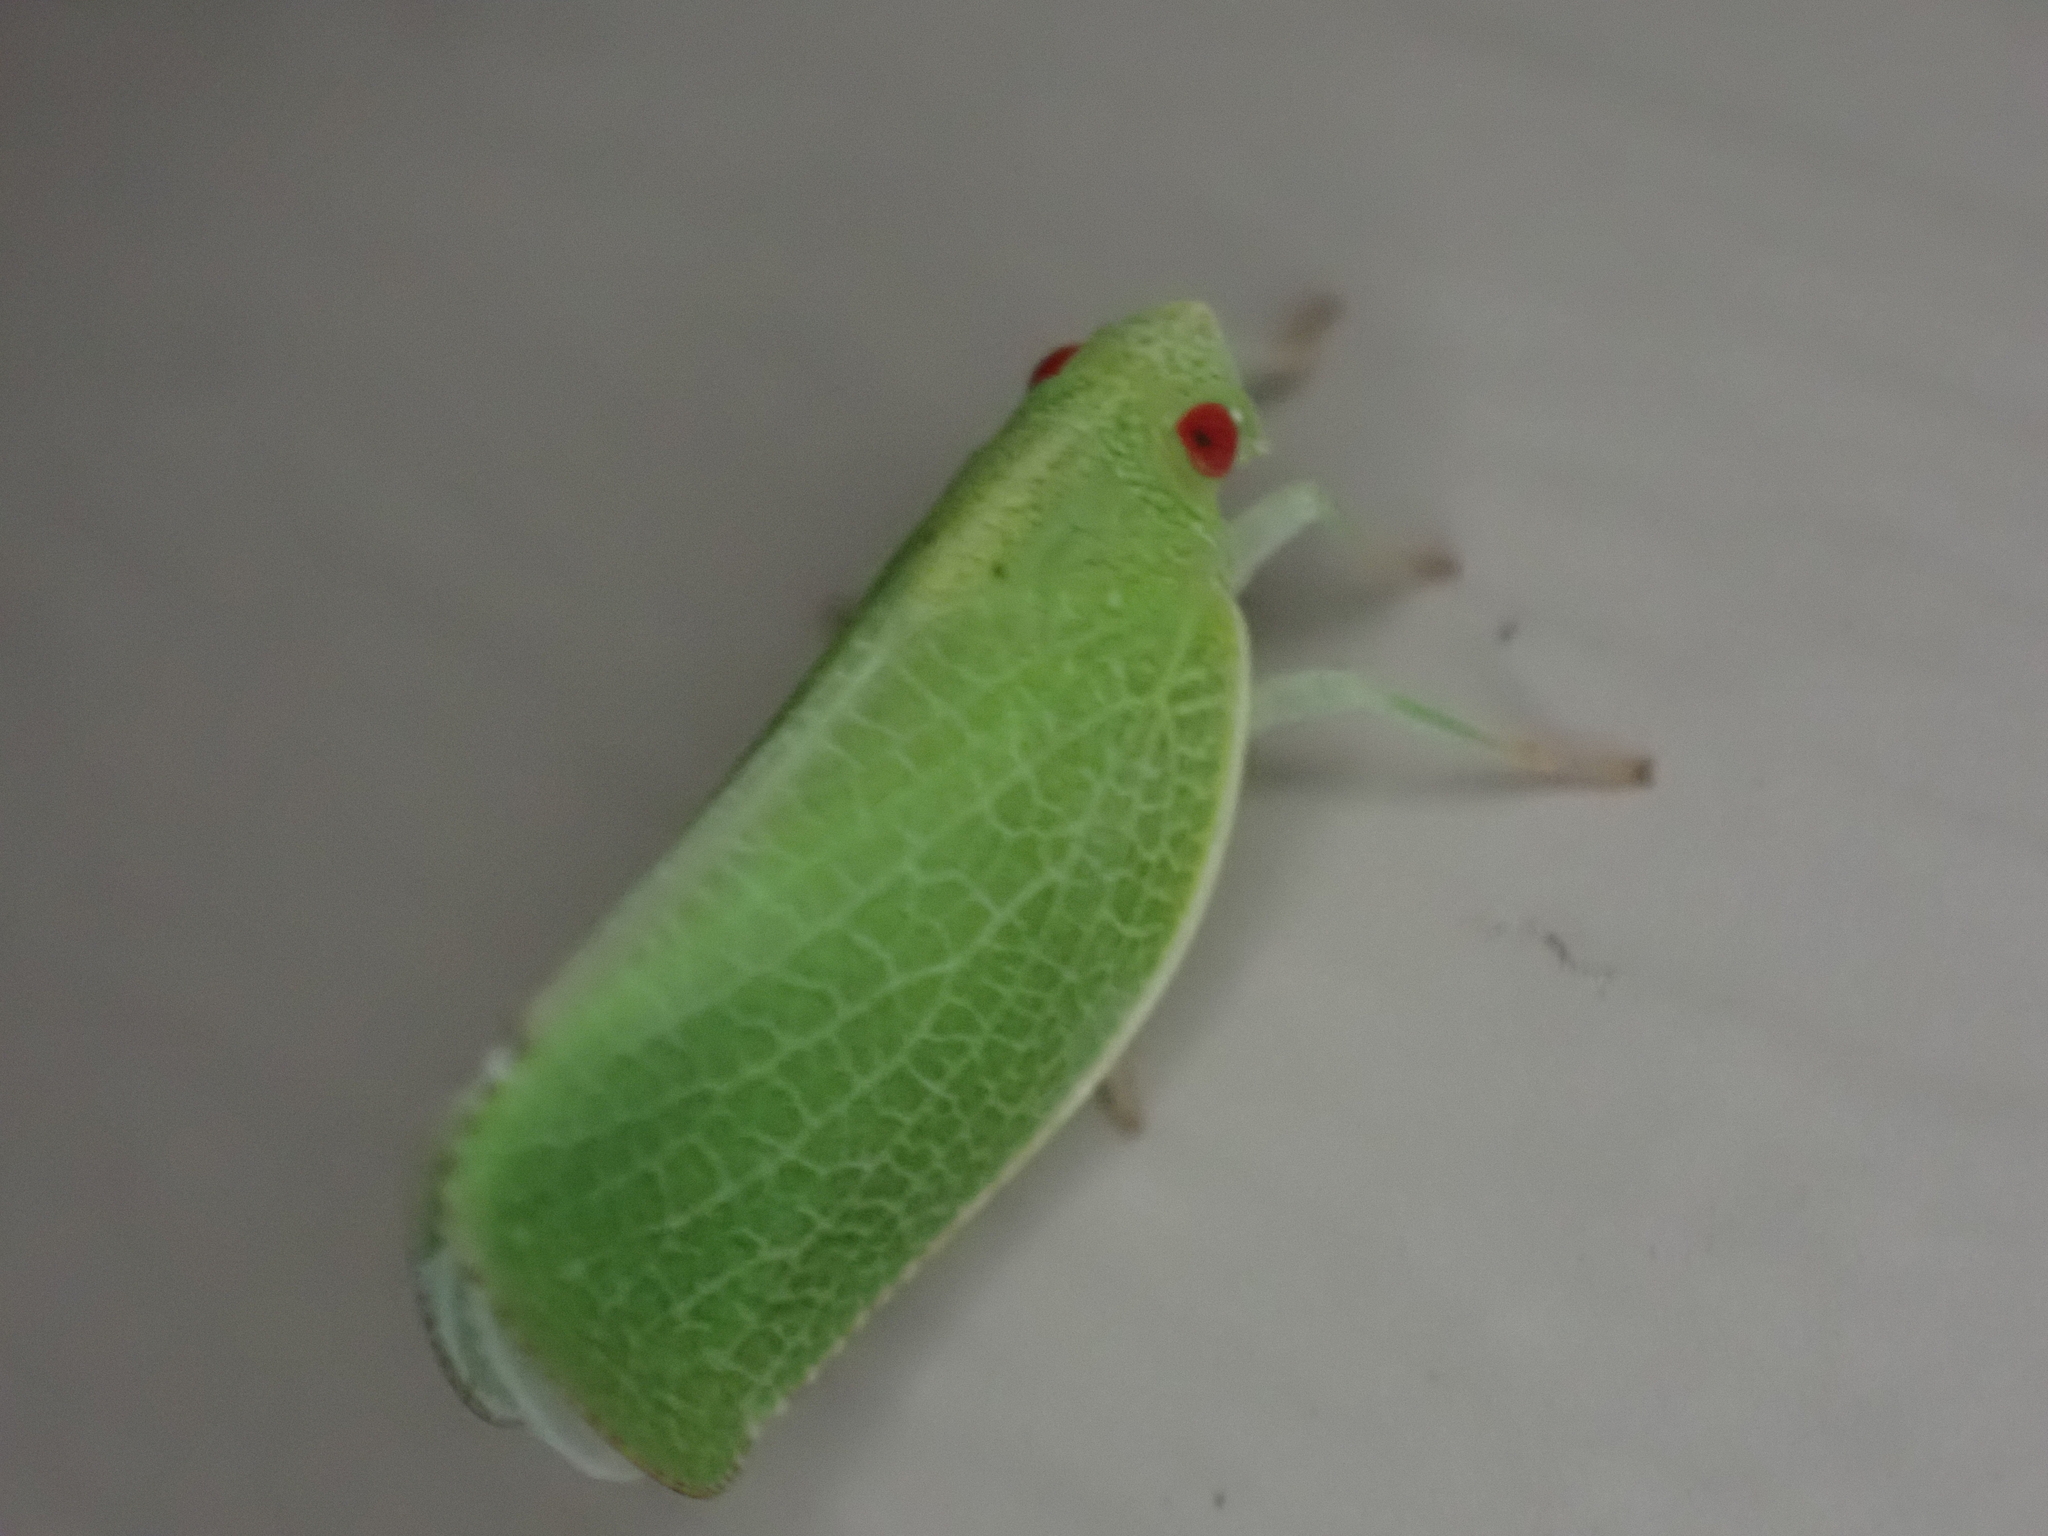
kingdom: Animalia
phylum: Arthropoda
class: Insecta
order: Hemiptera
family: Acanaloniidae
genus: Acanalonia
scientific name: Acanalonia conica
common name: Green cone-headed planthopper
